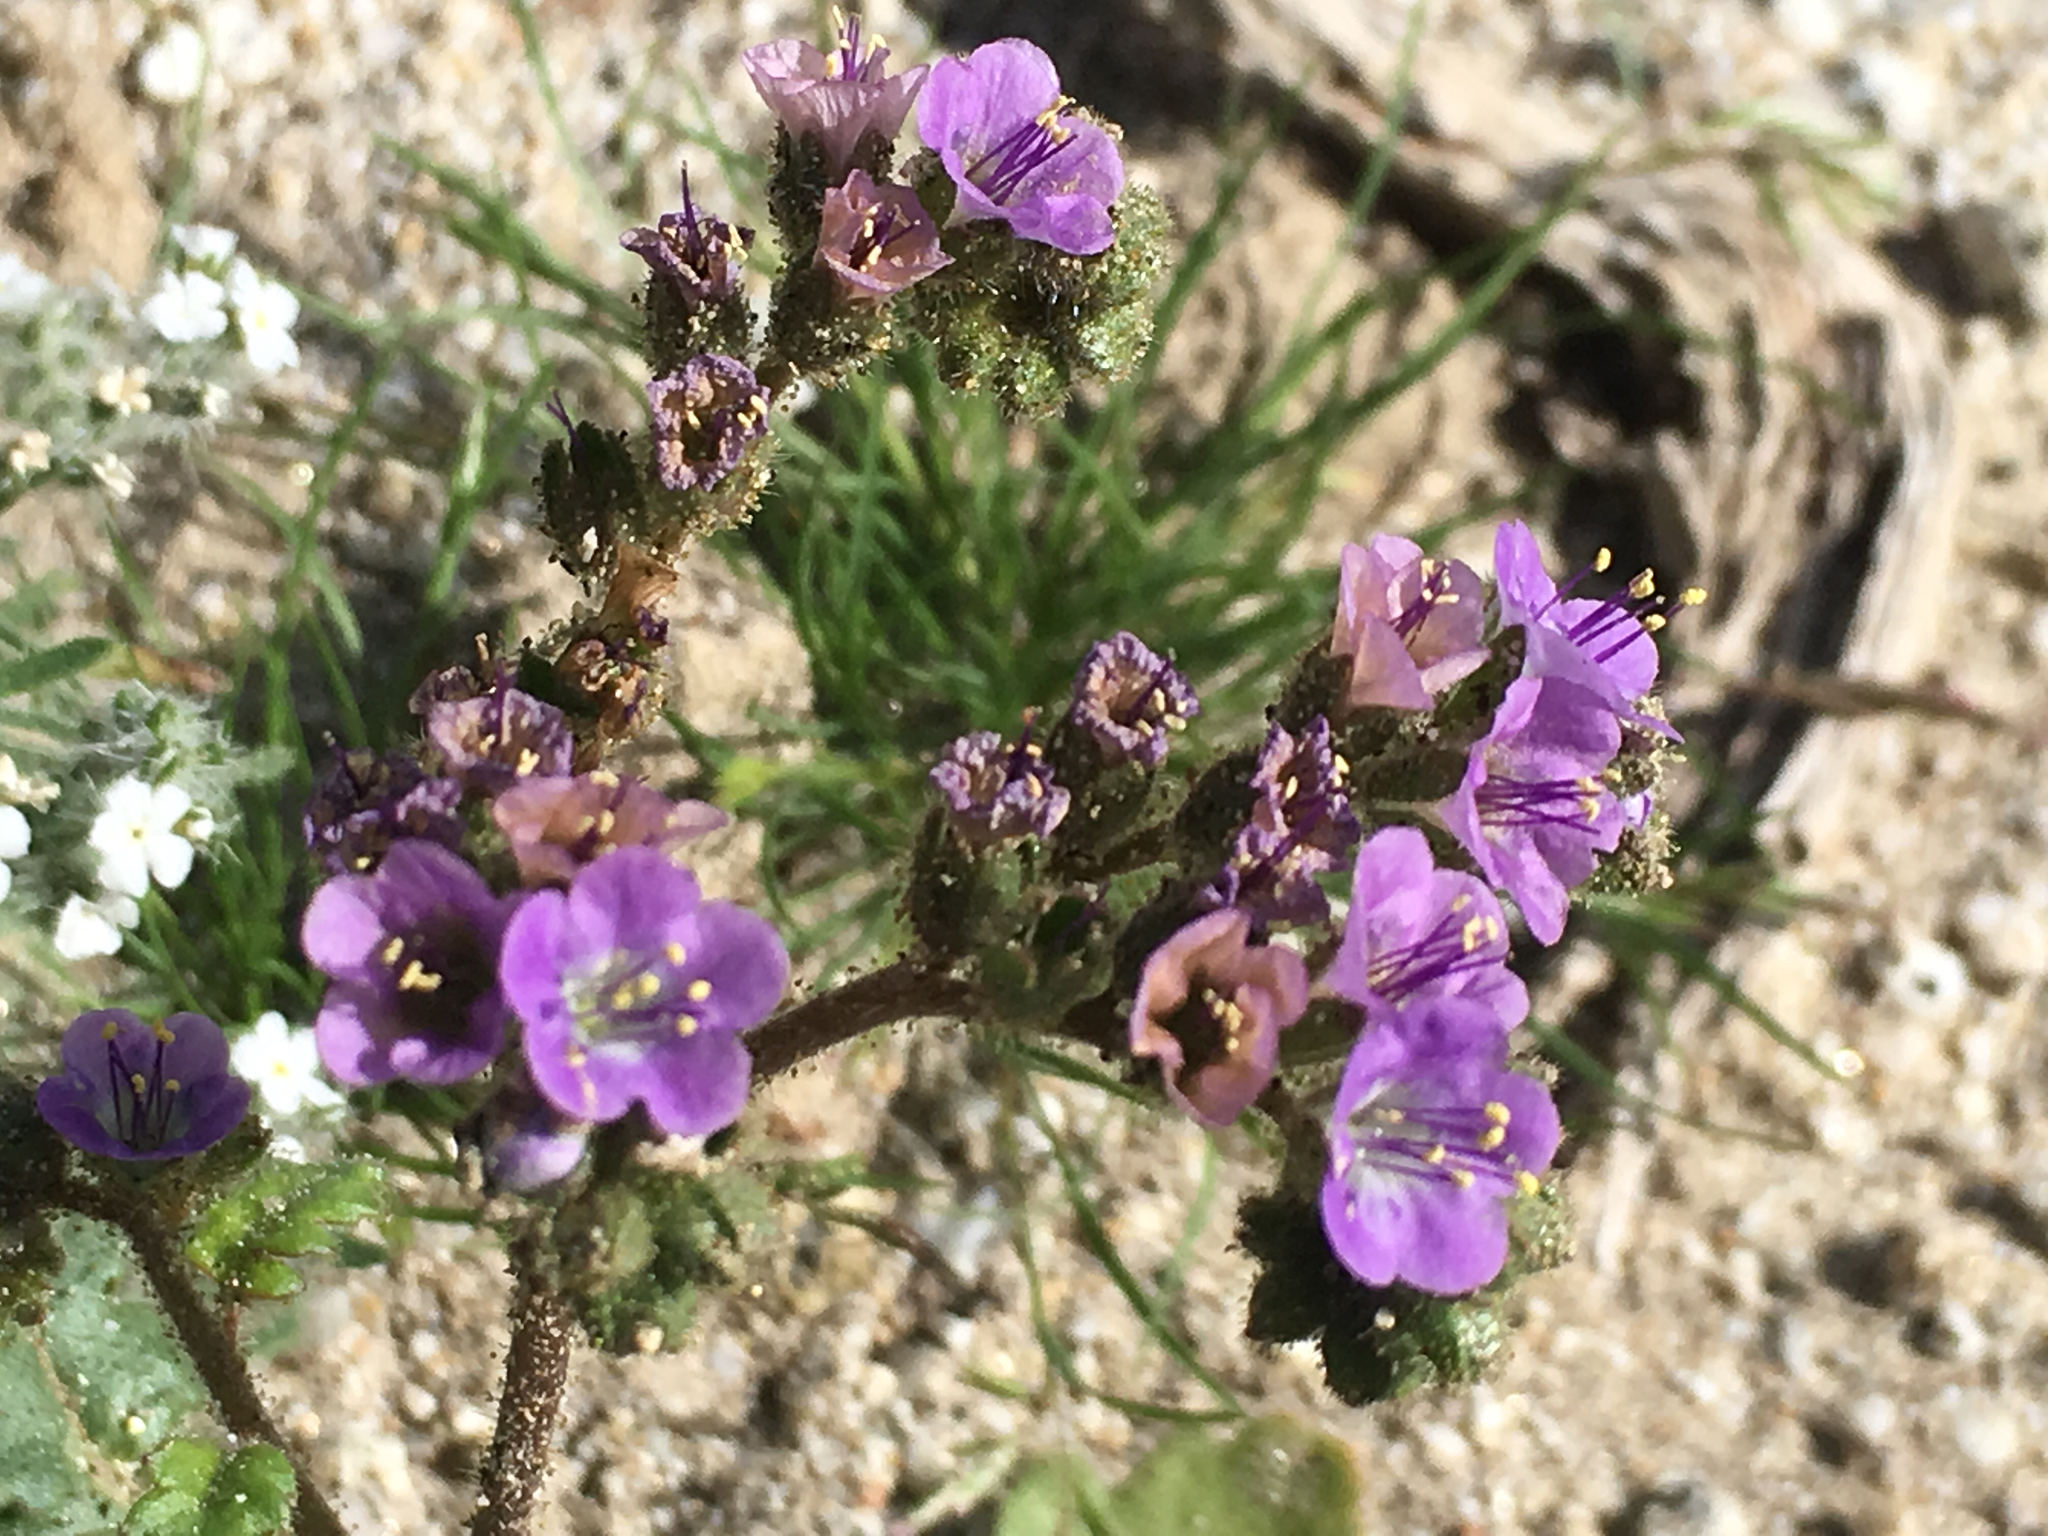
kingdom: Plantae
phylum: Tracheophyta
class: Magnoliopsida
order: Boraginales
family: Hydrophyllaceae
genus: Phacelia
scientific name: Phacelia crenulata
